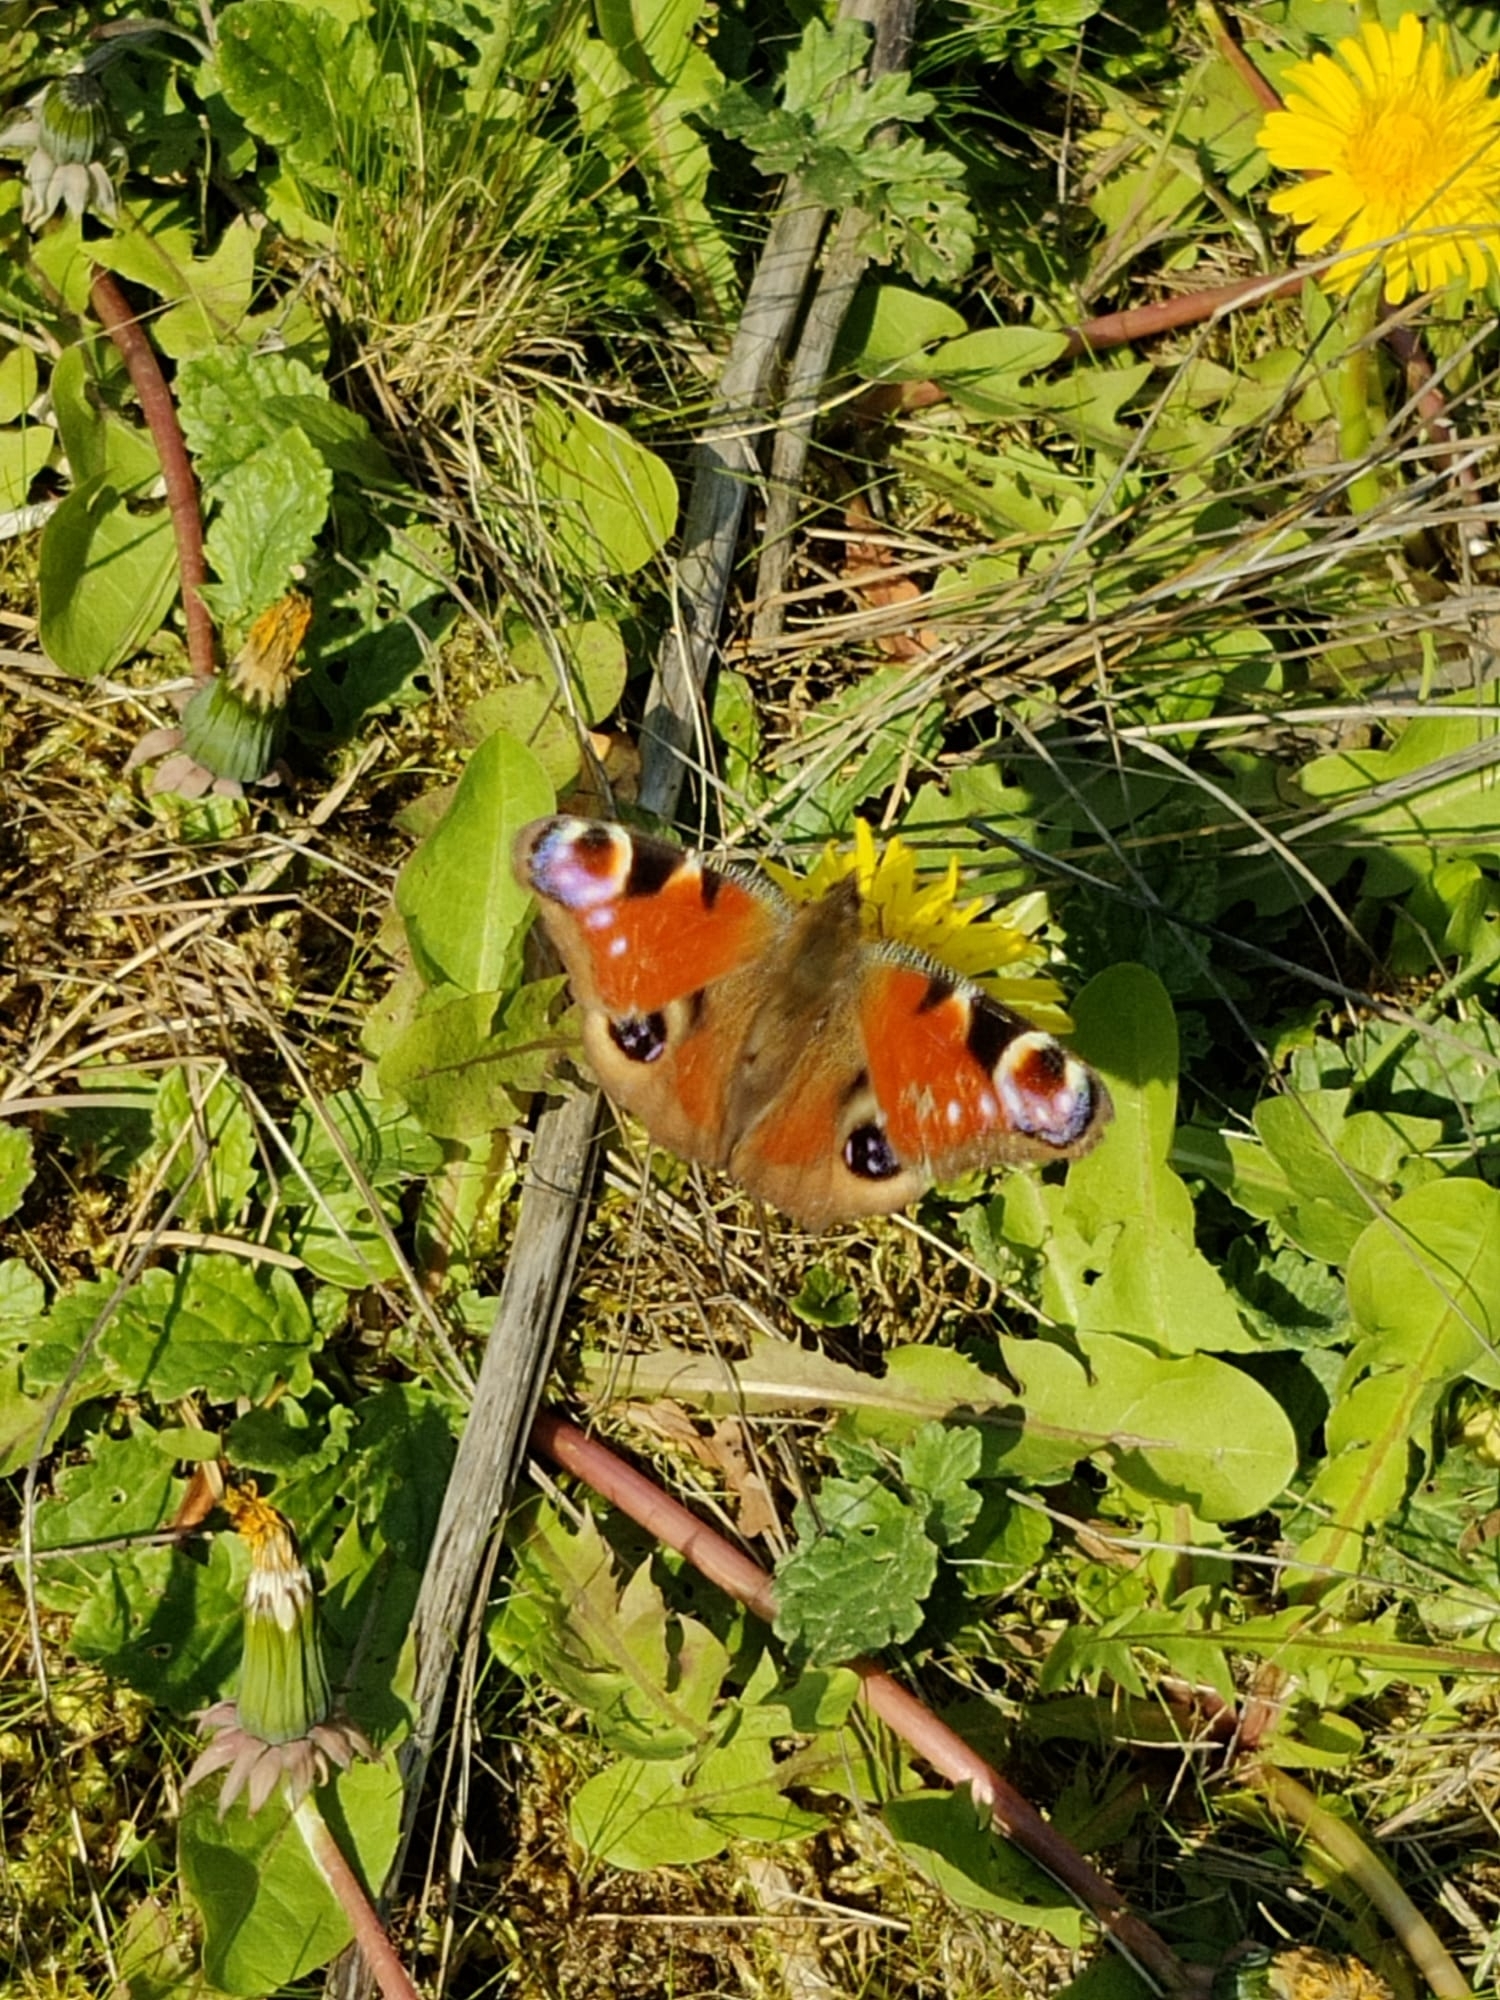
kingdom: Animalia
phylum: Arthropoda
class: Insecta
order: Lepidoptera
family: Nymphalidae
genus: Aglais
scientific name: Aglais io
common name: Peacock
